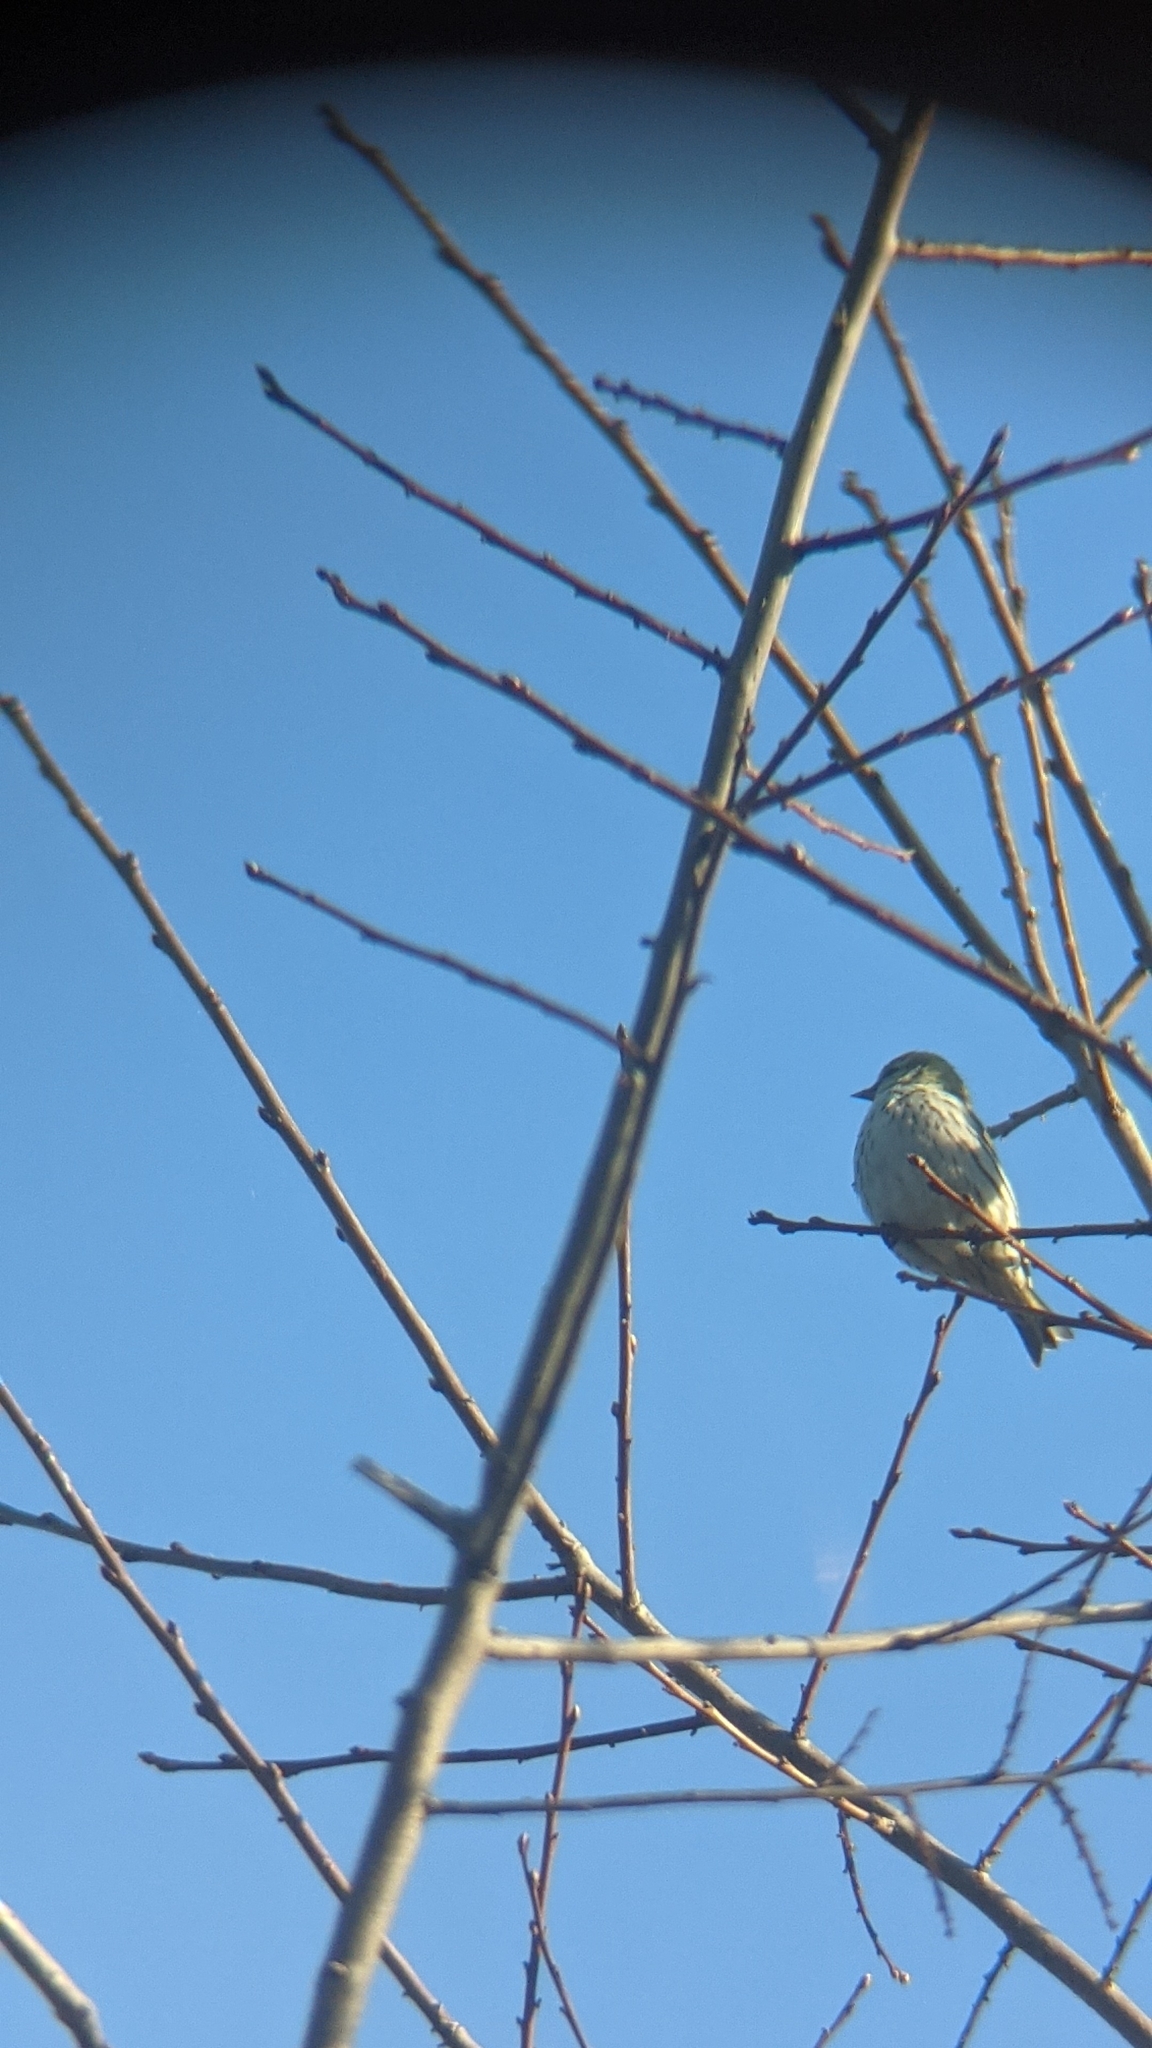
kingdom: Animalia
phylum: Chordata
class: Aves
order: Passeriformes
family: Fringillidae
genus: Spinus
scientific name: Spinus spinus
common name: Eurasian siskin
